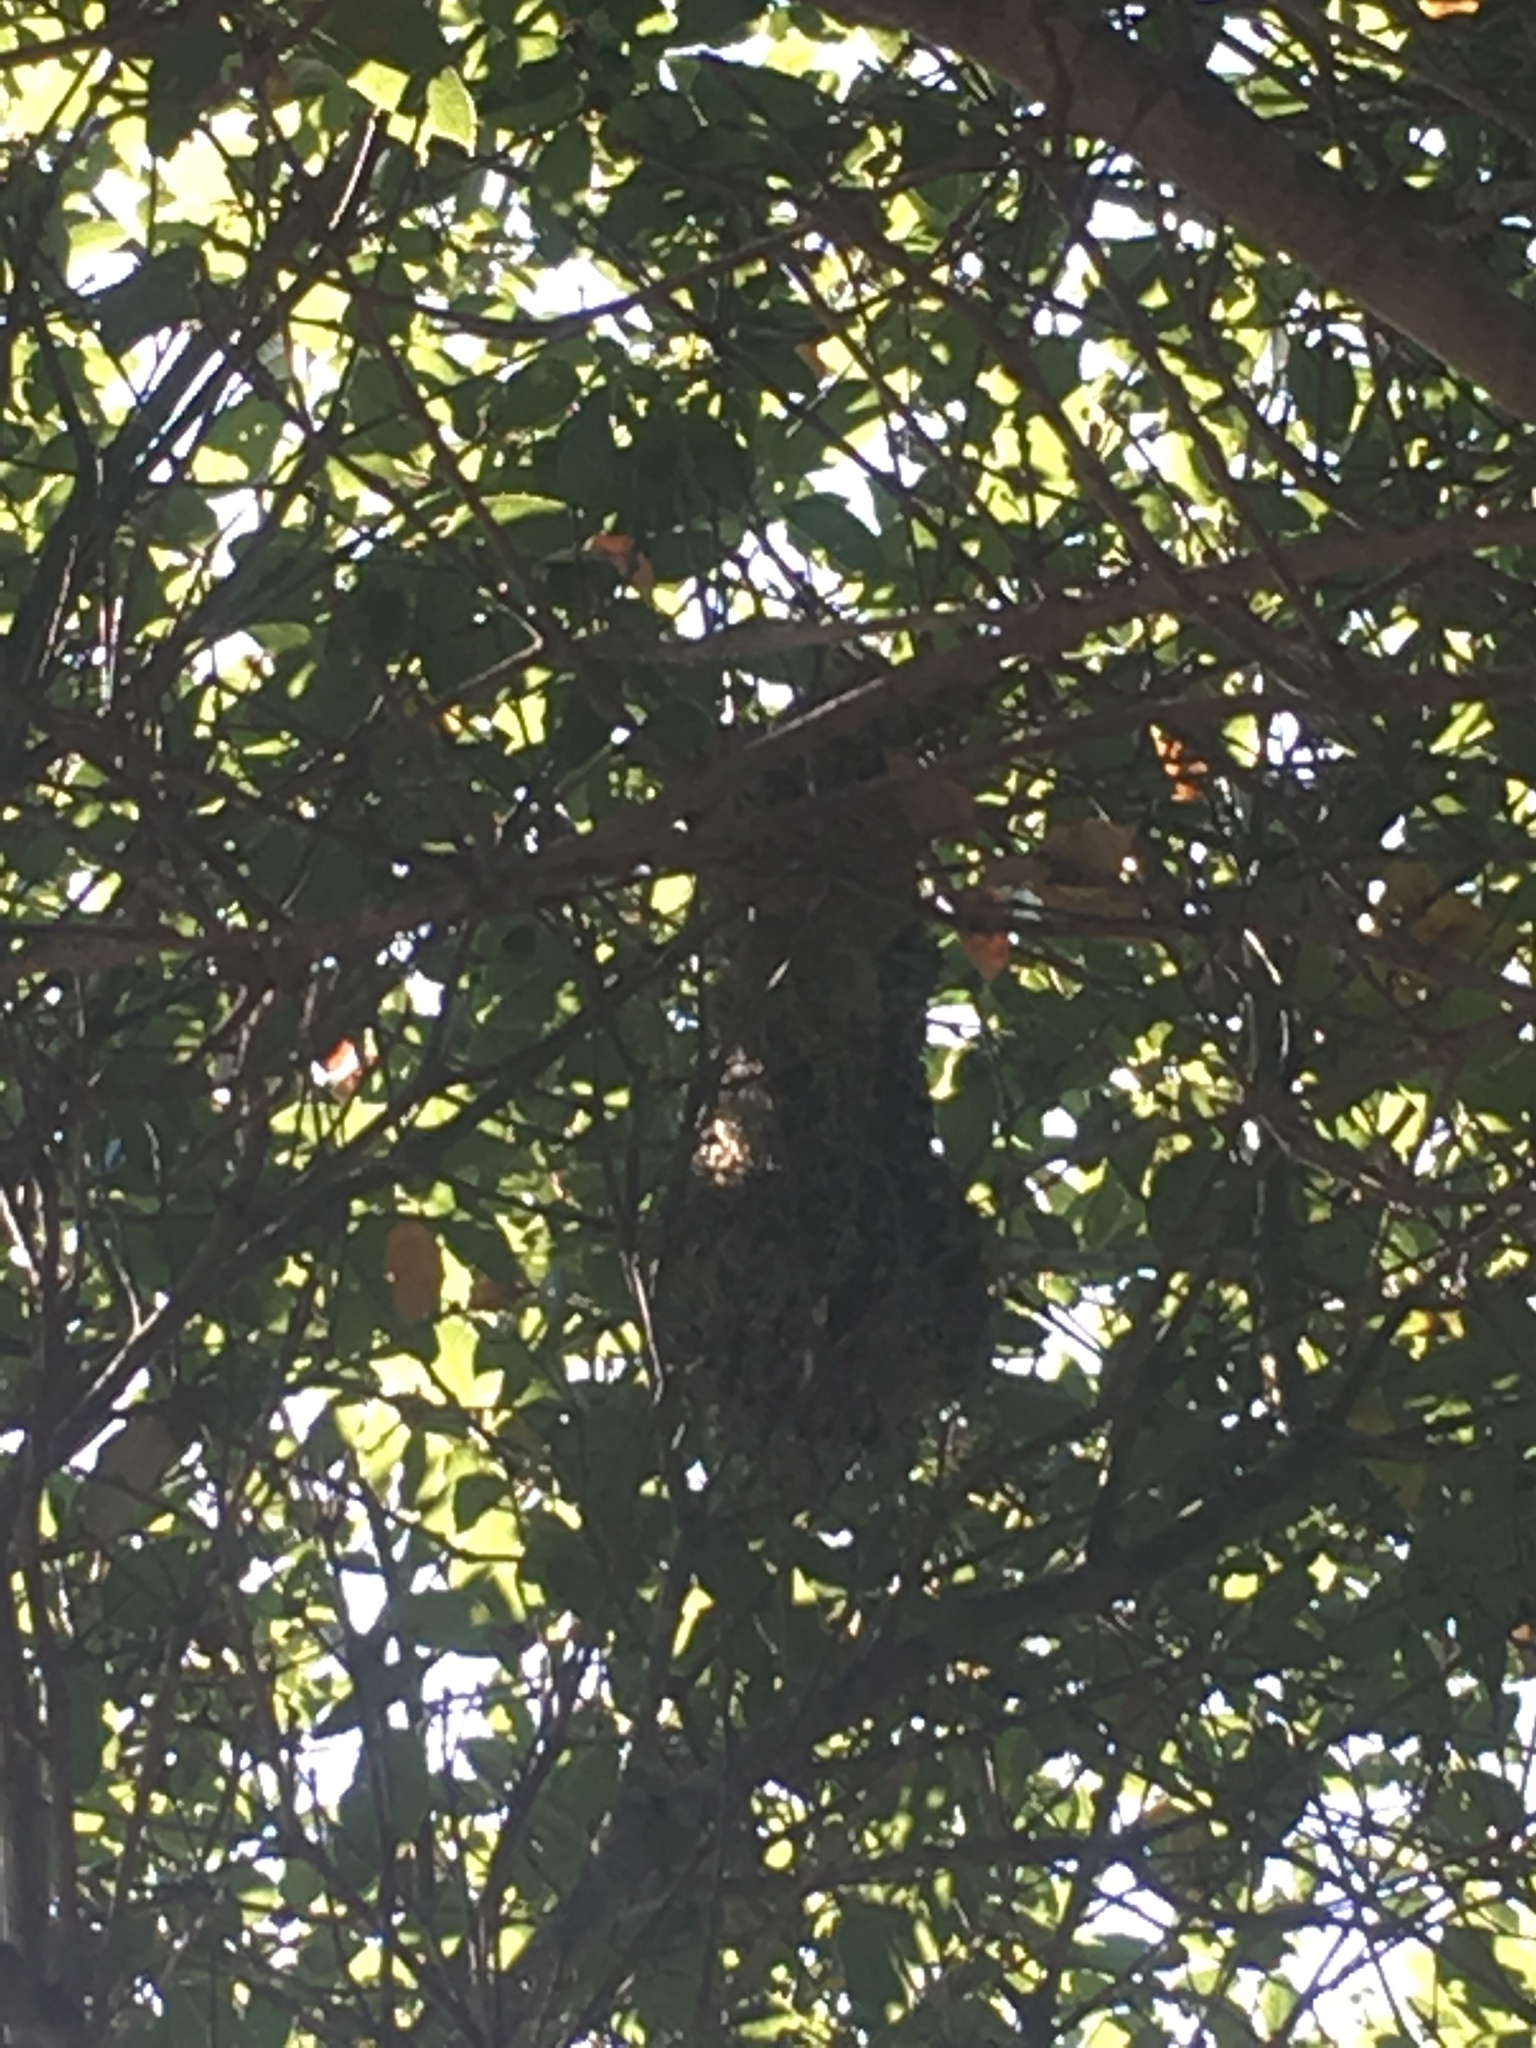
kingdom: Animalia
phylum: Chordata
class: Aves
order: Passeriformes
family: Aegithalidae
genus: Psaltriparus
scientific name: Psaltriparus minimus
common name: American bushtit
